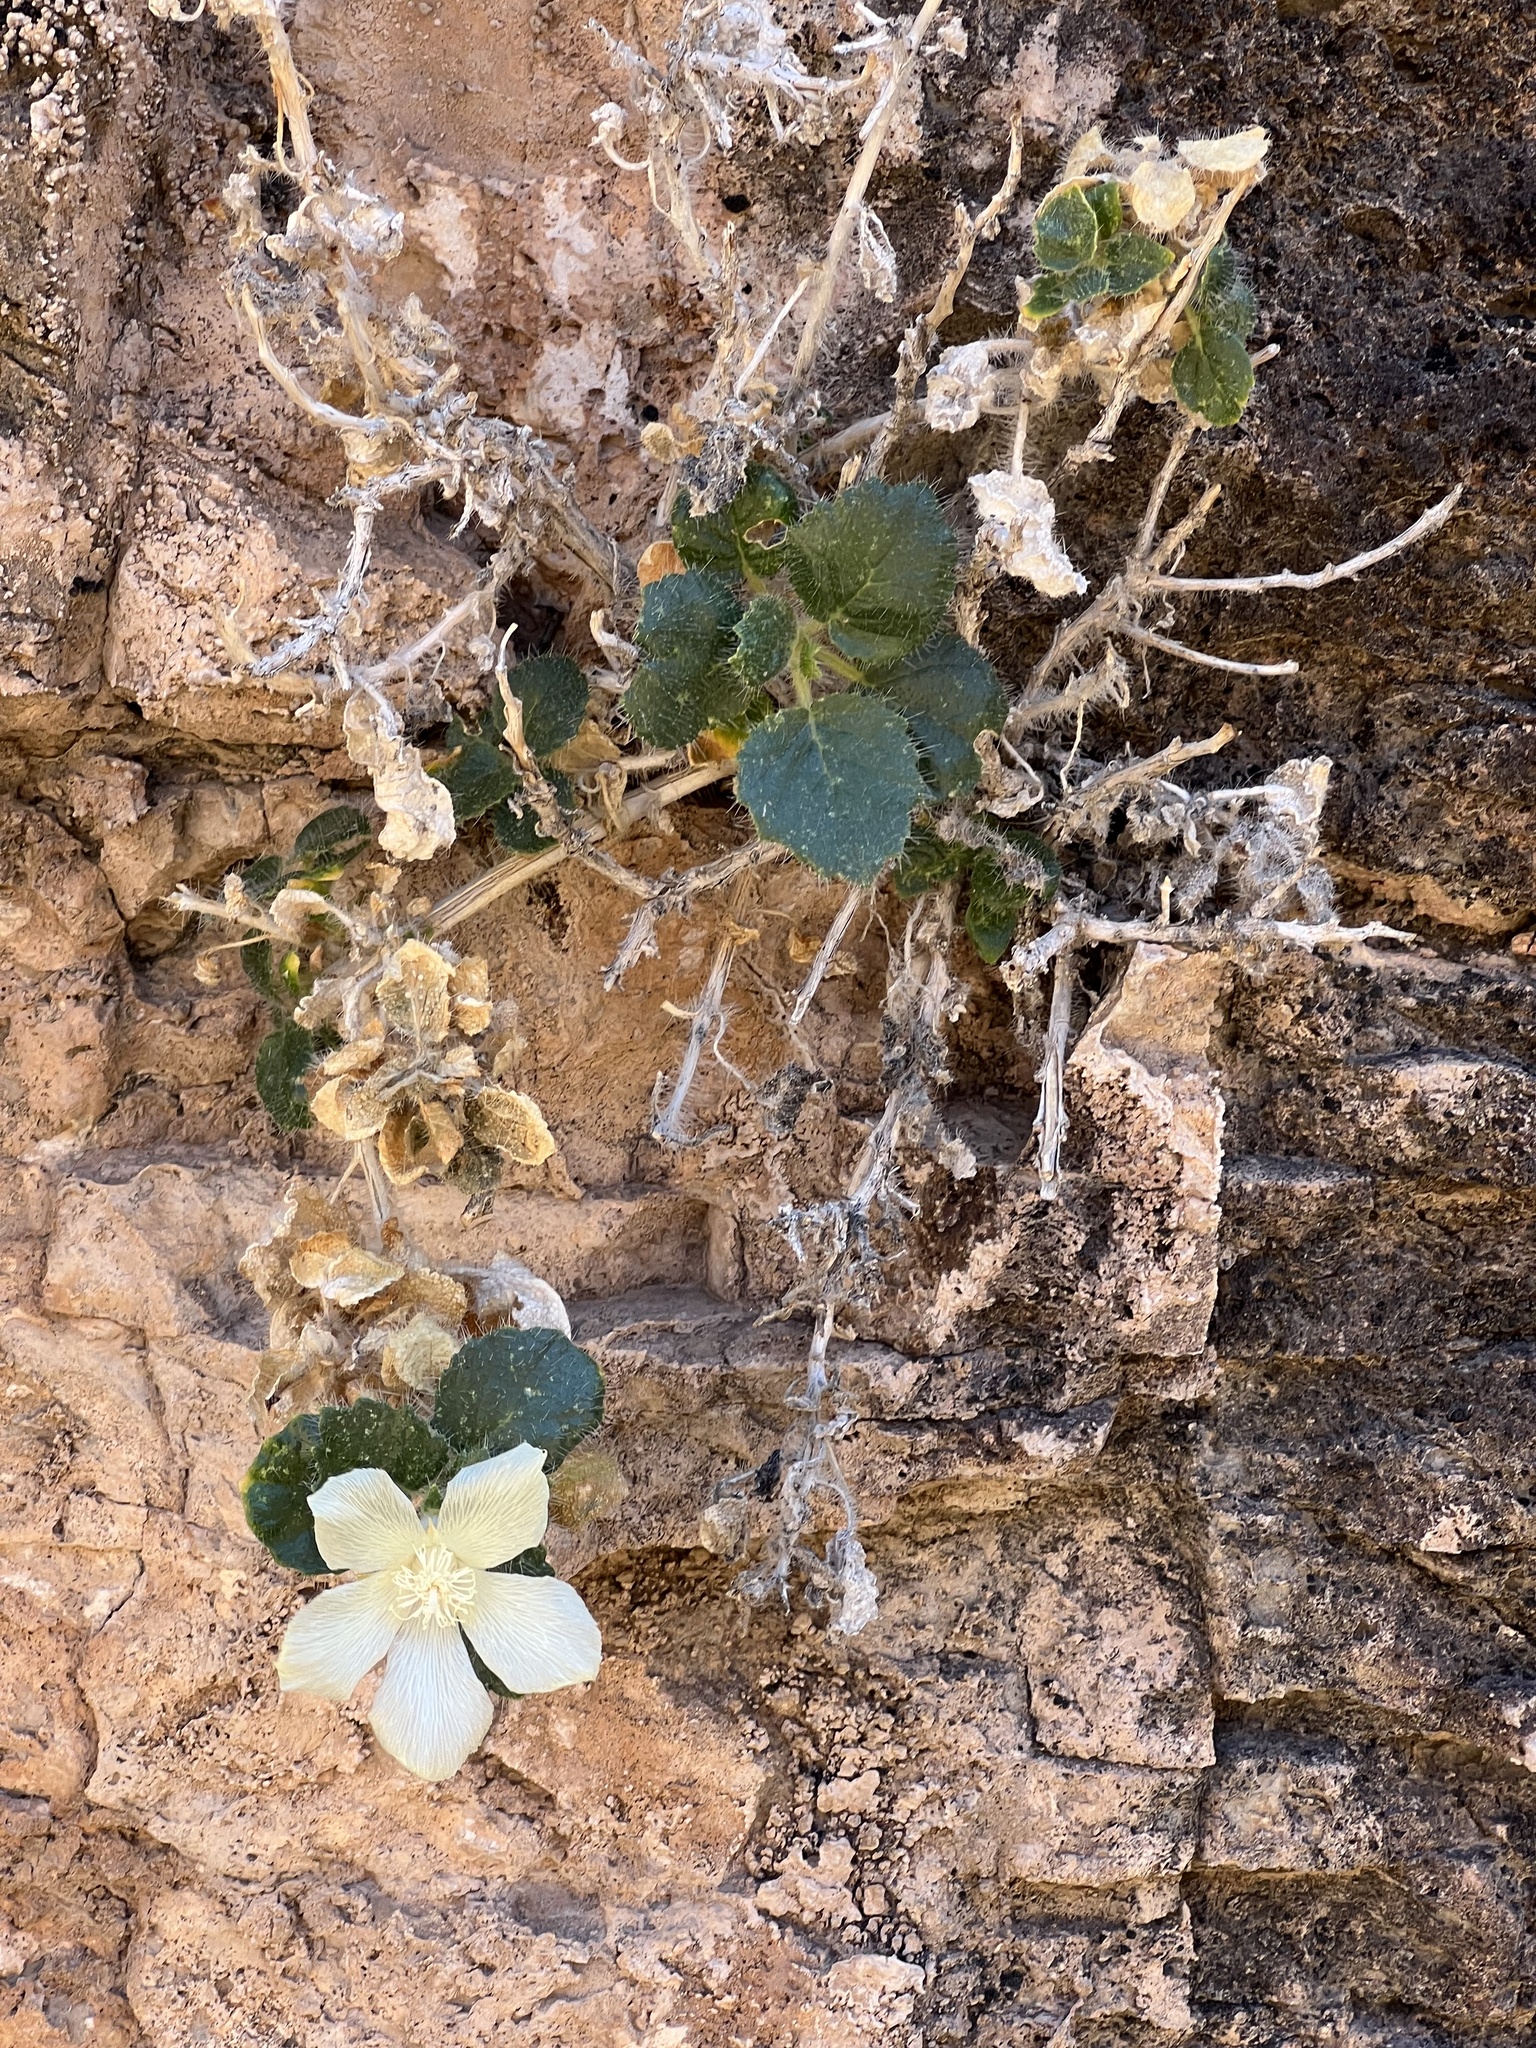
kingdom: Plantae
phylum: Tracheophyta
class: Magnoliopsida
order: Cornales
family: Loasaceae
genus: Eucnide
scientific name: Eucnide urens
